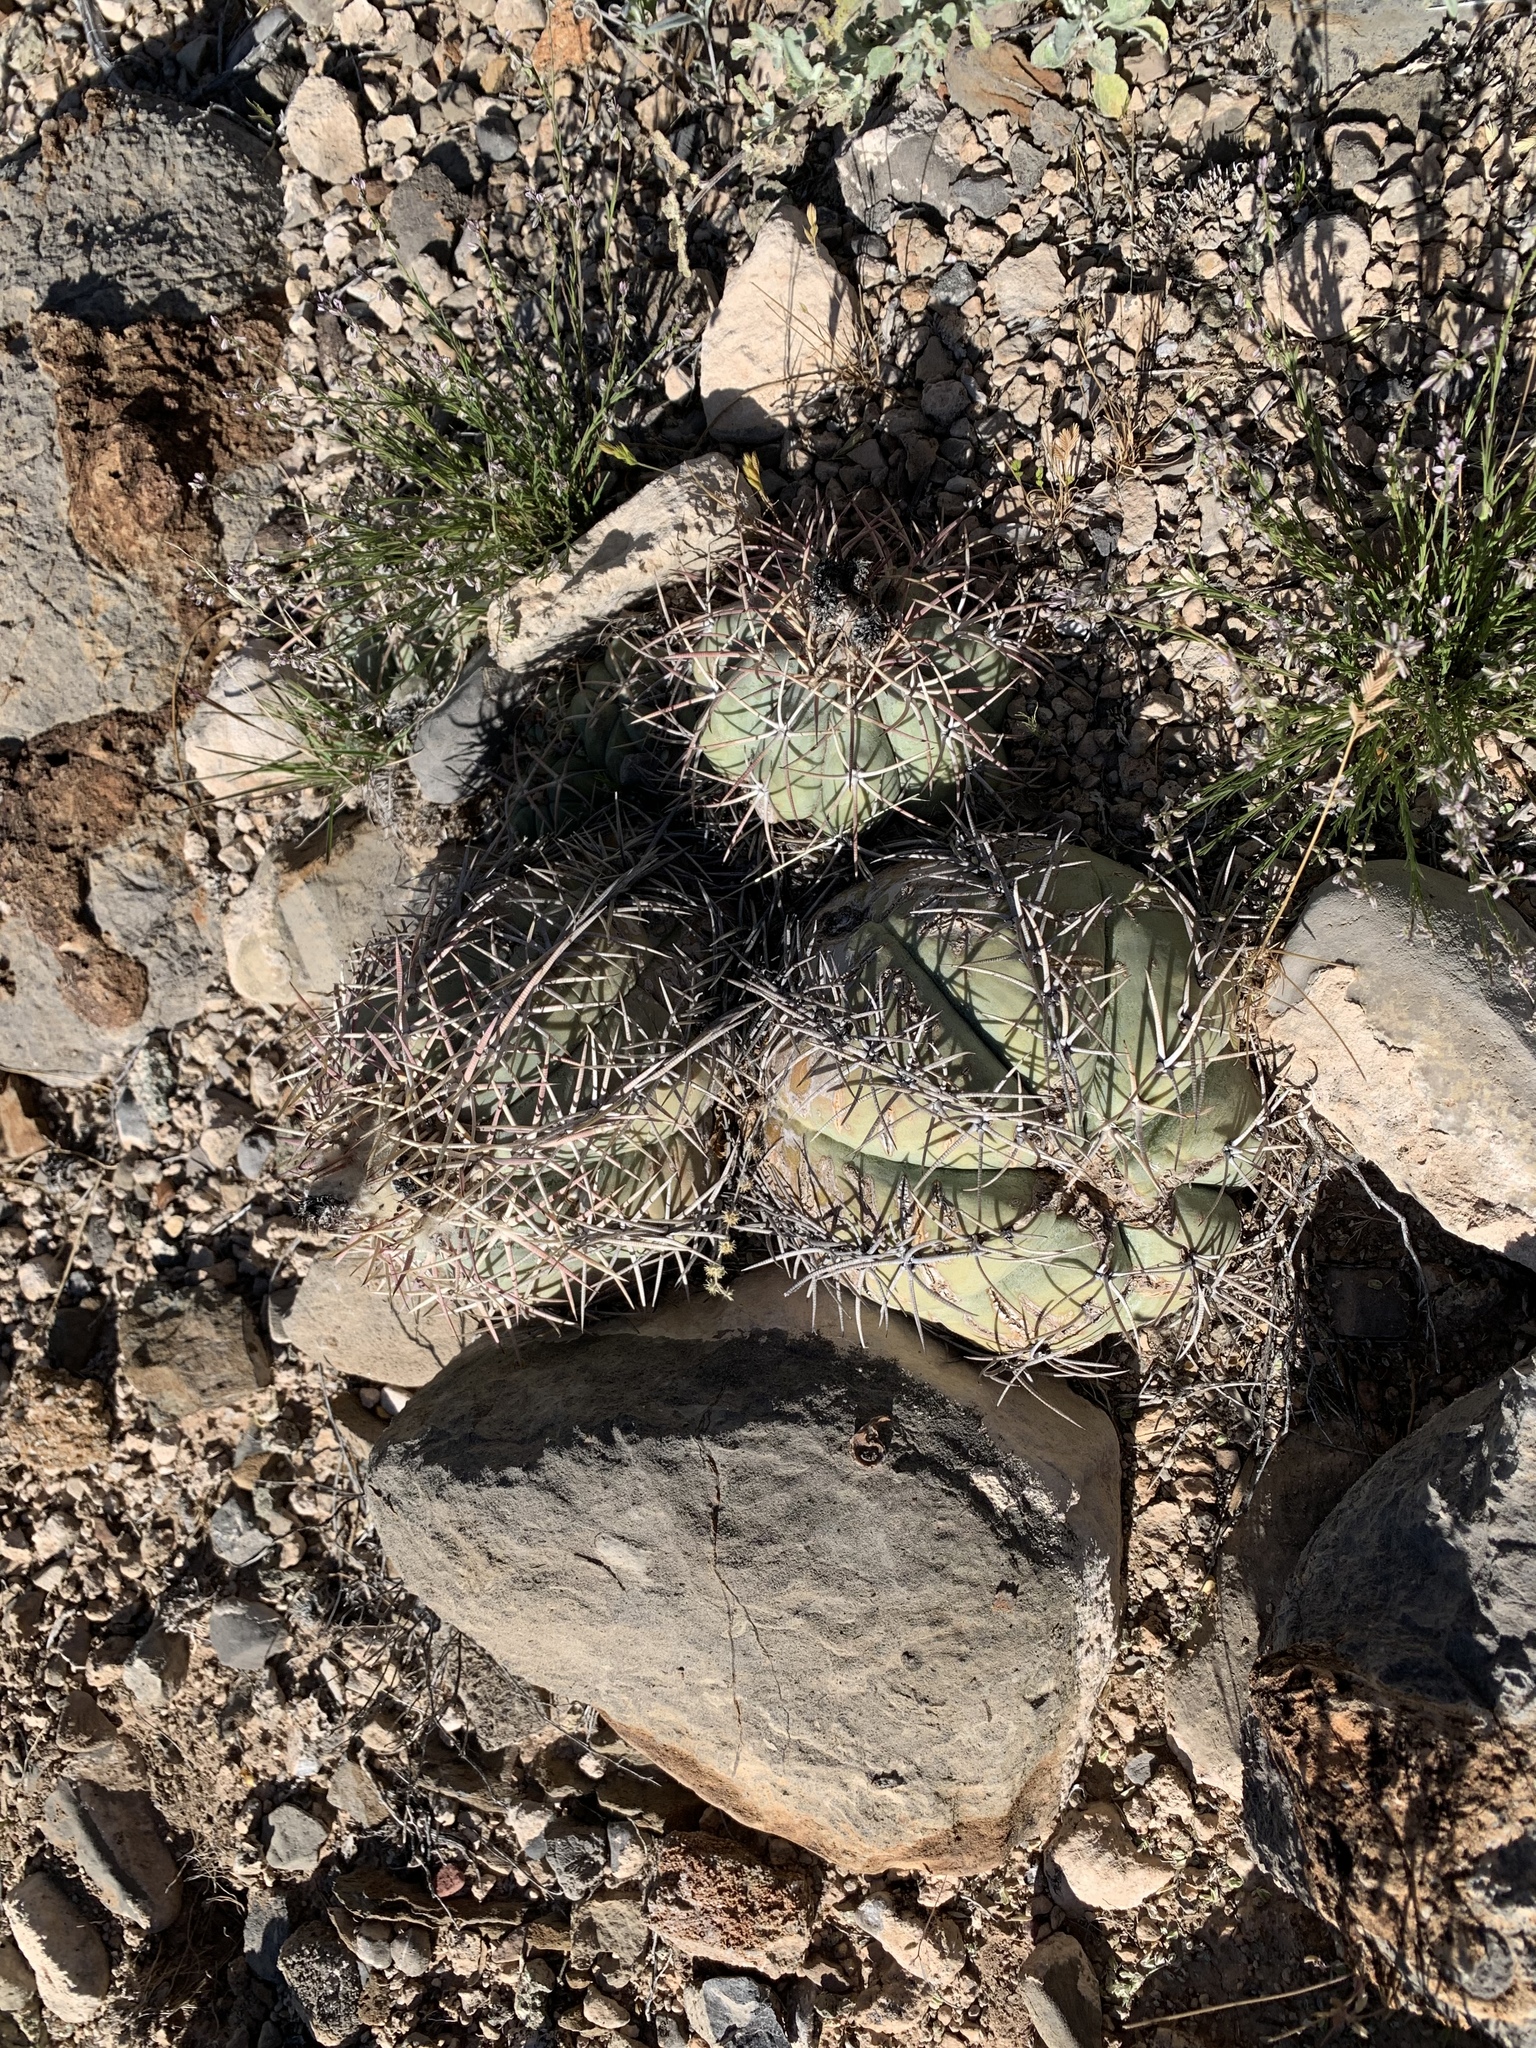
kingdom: Plantae
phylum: Tracheophyta
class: Magnoliopsida
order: Caryophyllales
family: Cactaceae
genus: Echinocactus
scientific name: Echinocactus horizonthalonius
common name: Devilshead
